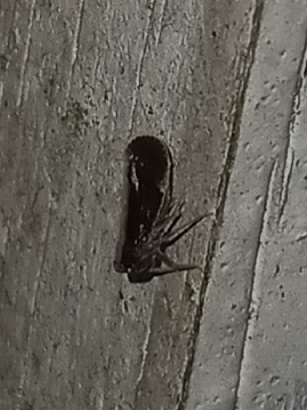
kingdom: Animalia
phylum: Arthropoda
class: Insecta
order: Hemiptera
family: Cixiidae
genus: Pintalia
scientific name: Pintalia delicata
